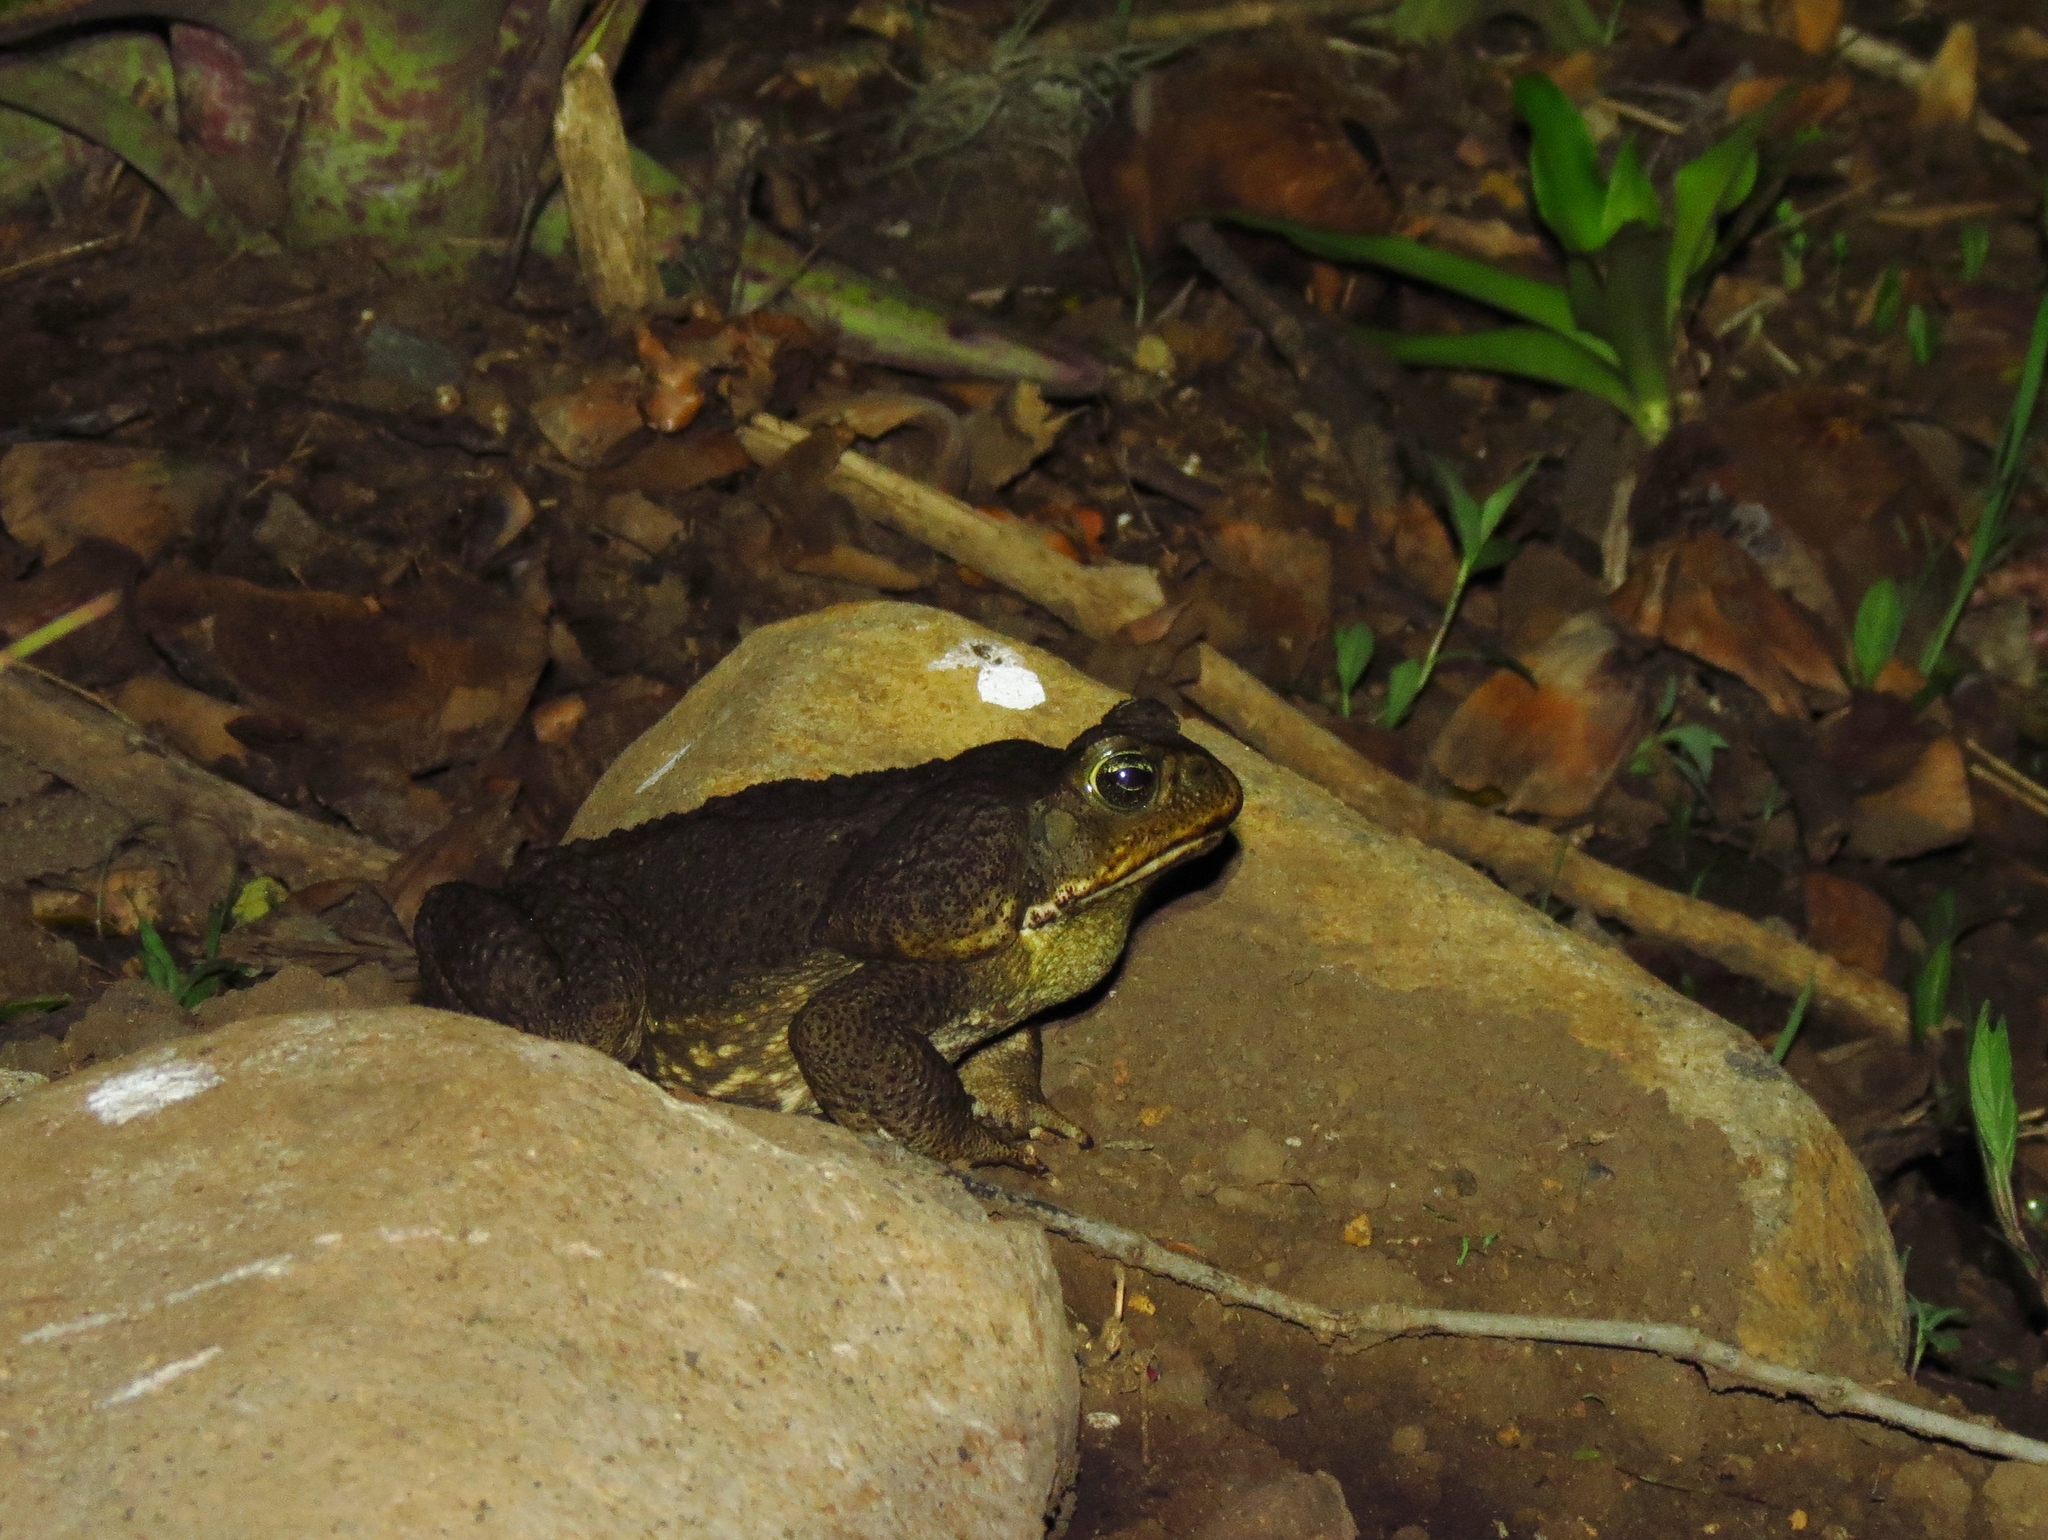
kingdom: Animalia
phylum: Chordata
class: Amphibia
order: Anura
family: Bufonidae
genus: Rhinella
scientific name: Rhinella horribilis
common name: Mesoamerican cane toad
